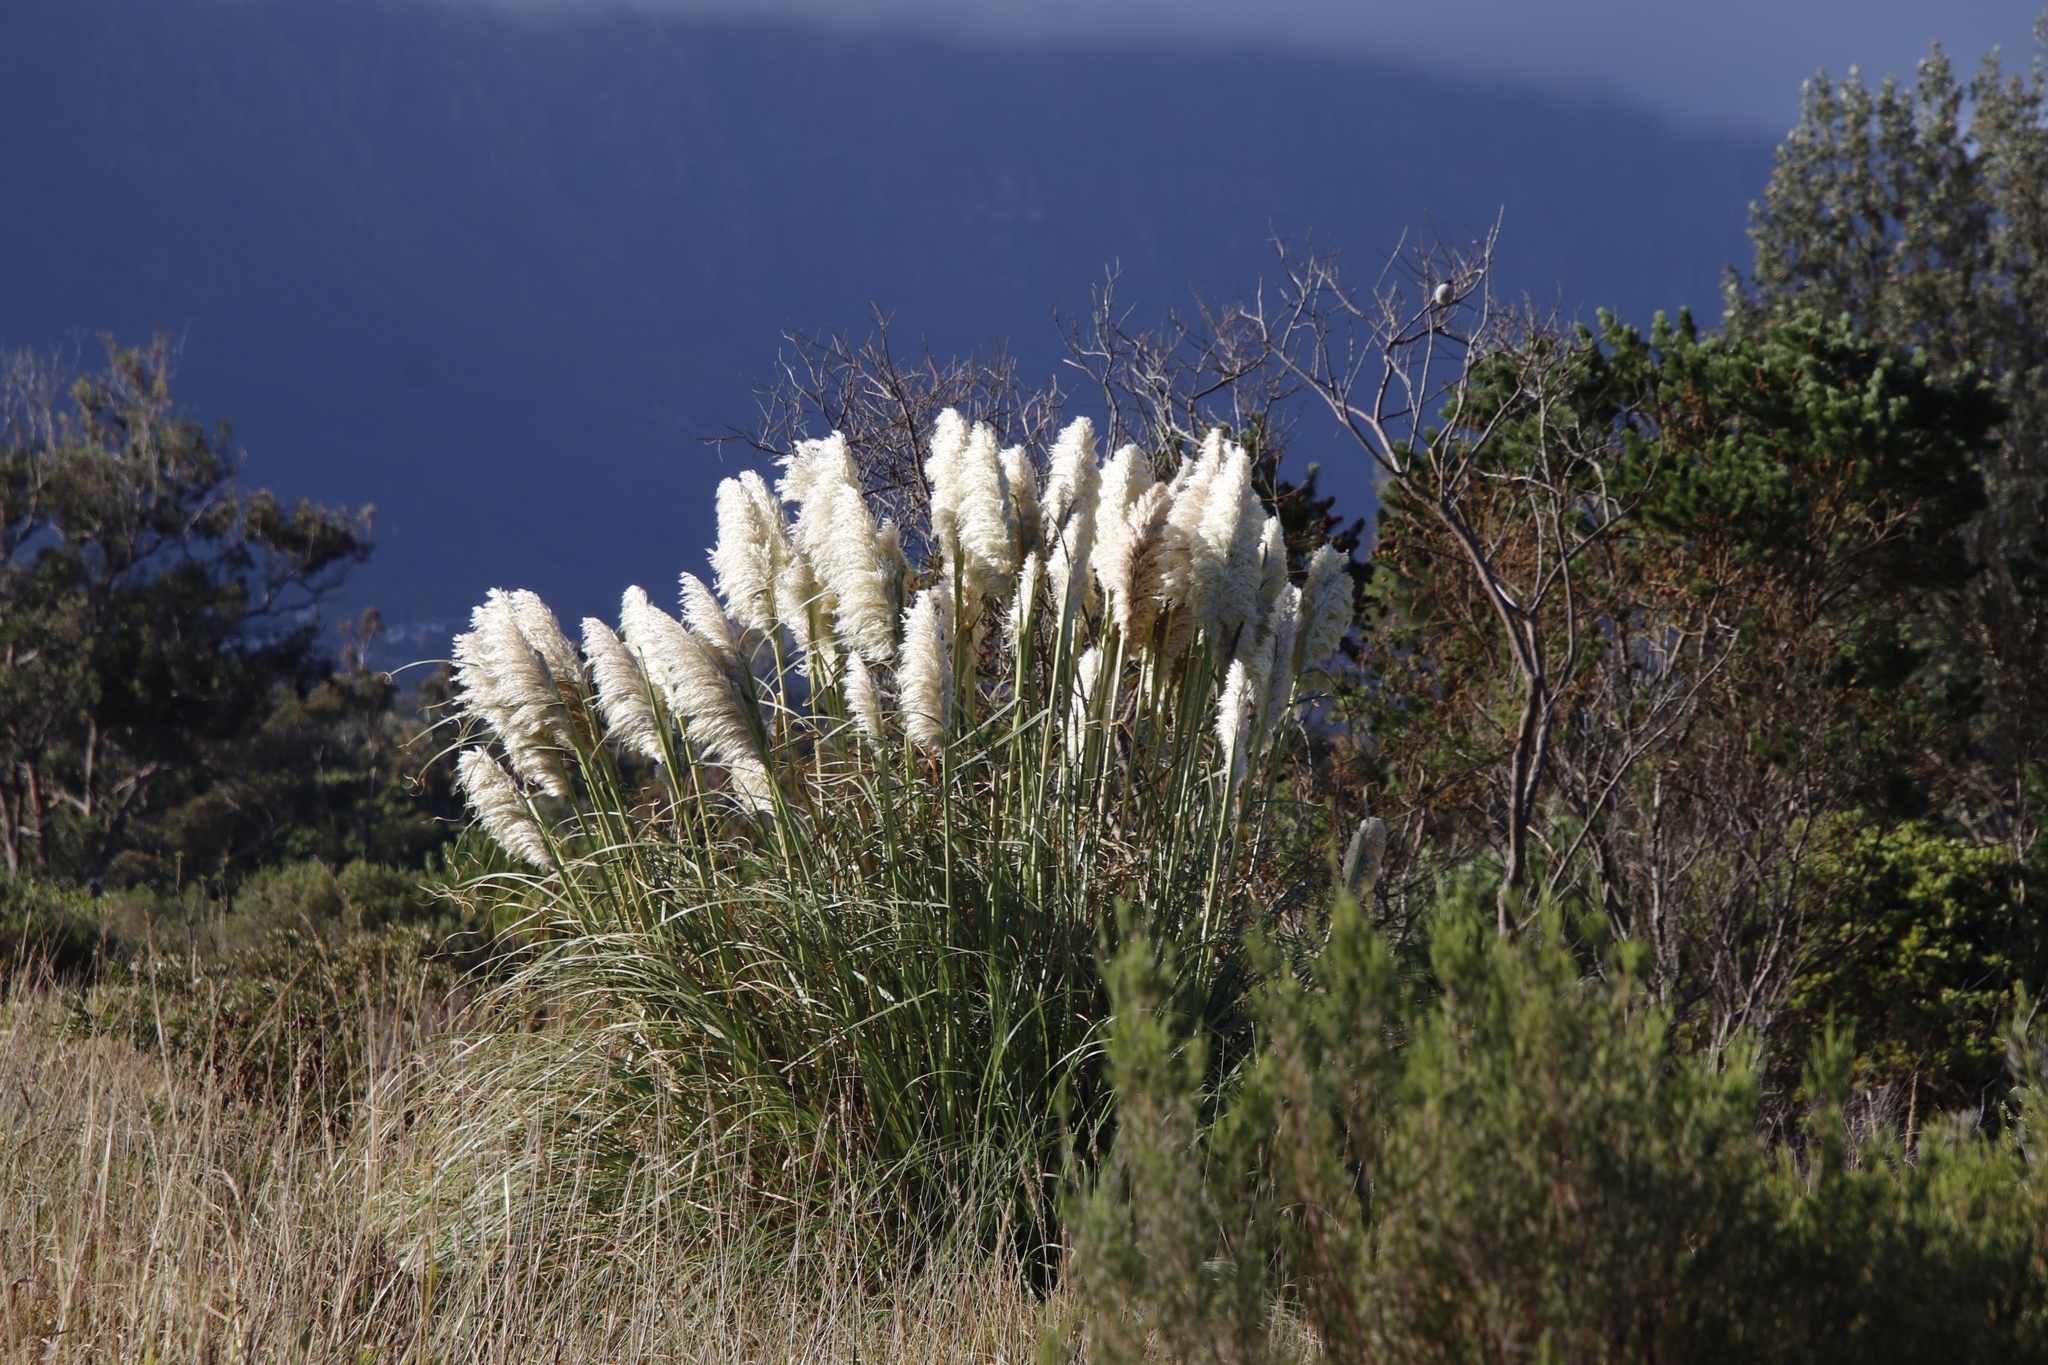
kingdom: Plantae
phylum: Tracheophyta
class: Liliopsida
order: Poales
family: Poaceae
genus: Cortaderia
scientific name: Cortaderia selloana
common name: Uruguayan pampas grass
